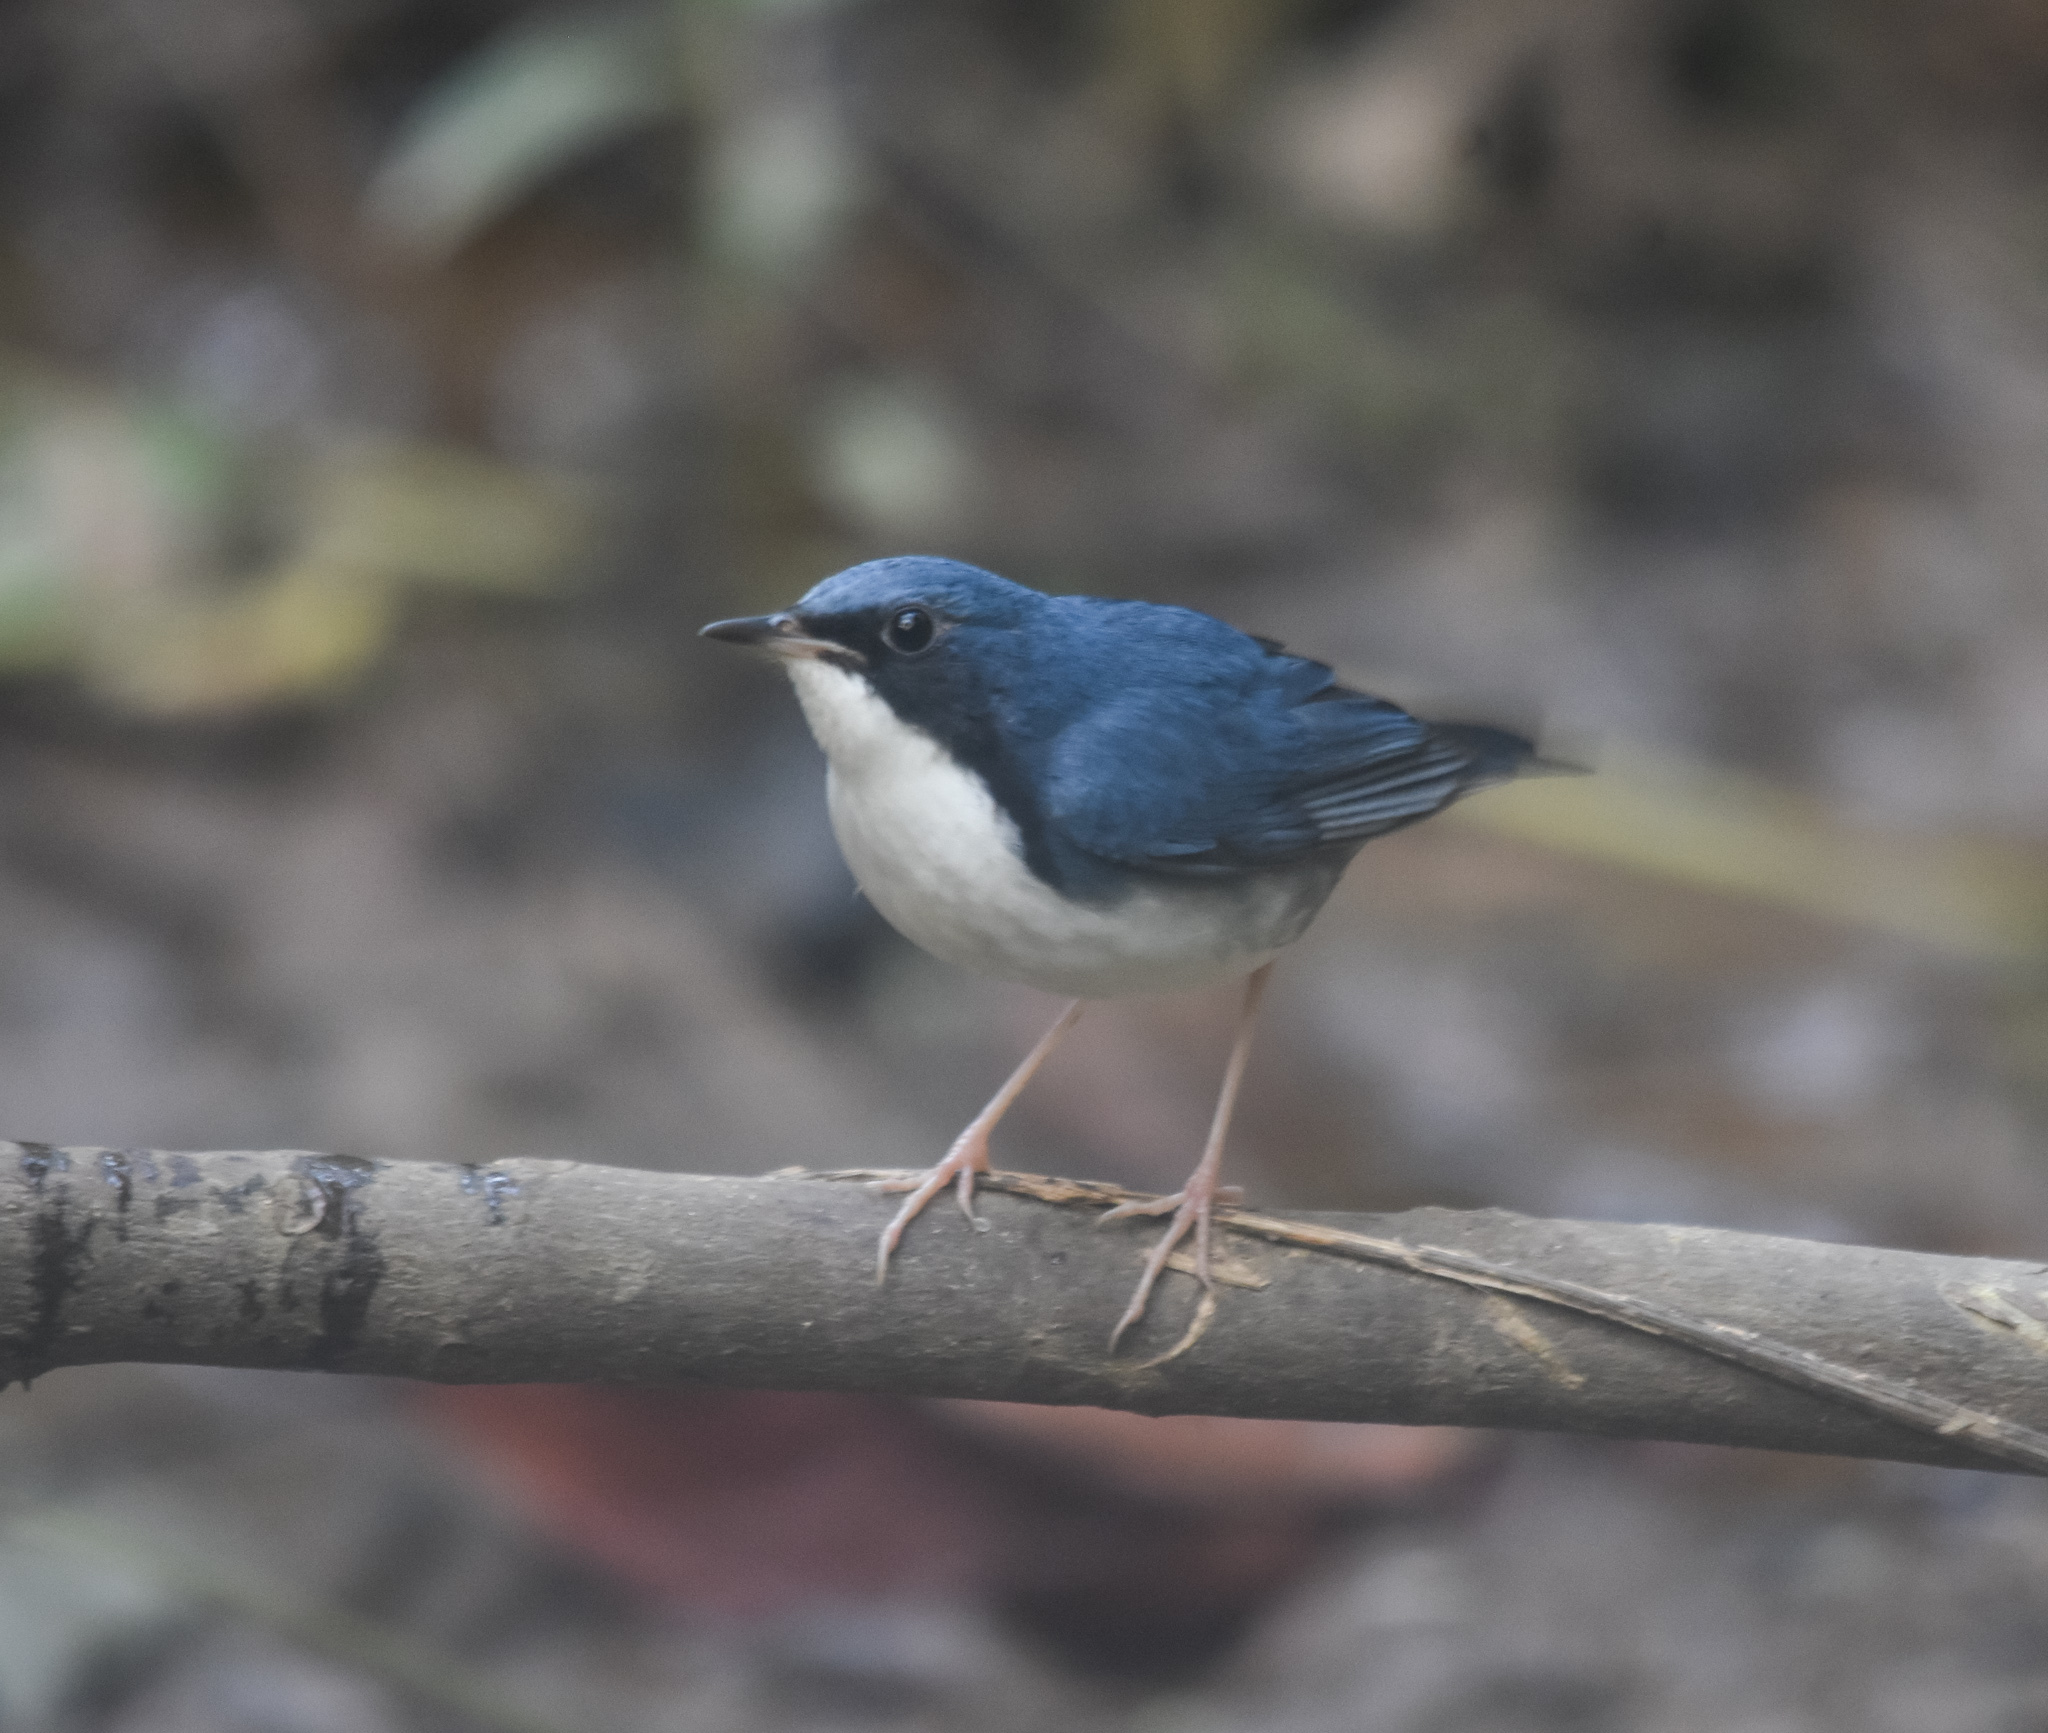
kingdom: Animalia
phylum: Chordata
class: Aves
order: Passeriformes
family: Muscicapidae
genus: Luscinia
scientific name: Luscinia cyane
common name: Siberian blue robin
